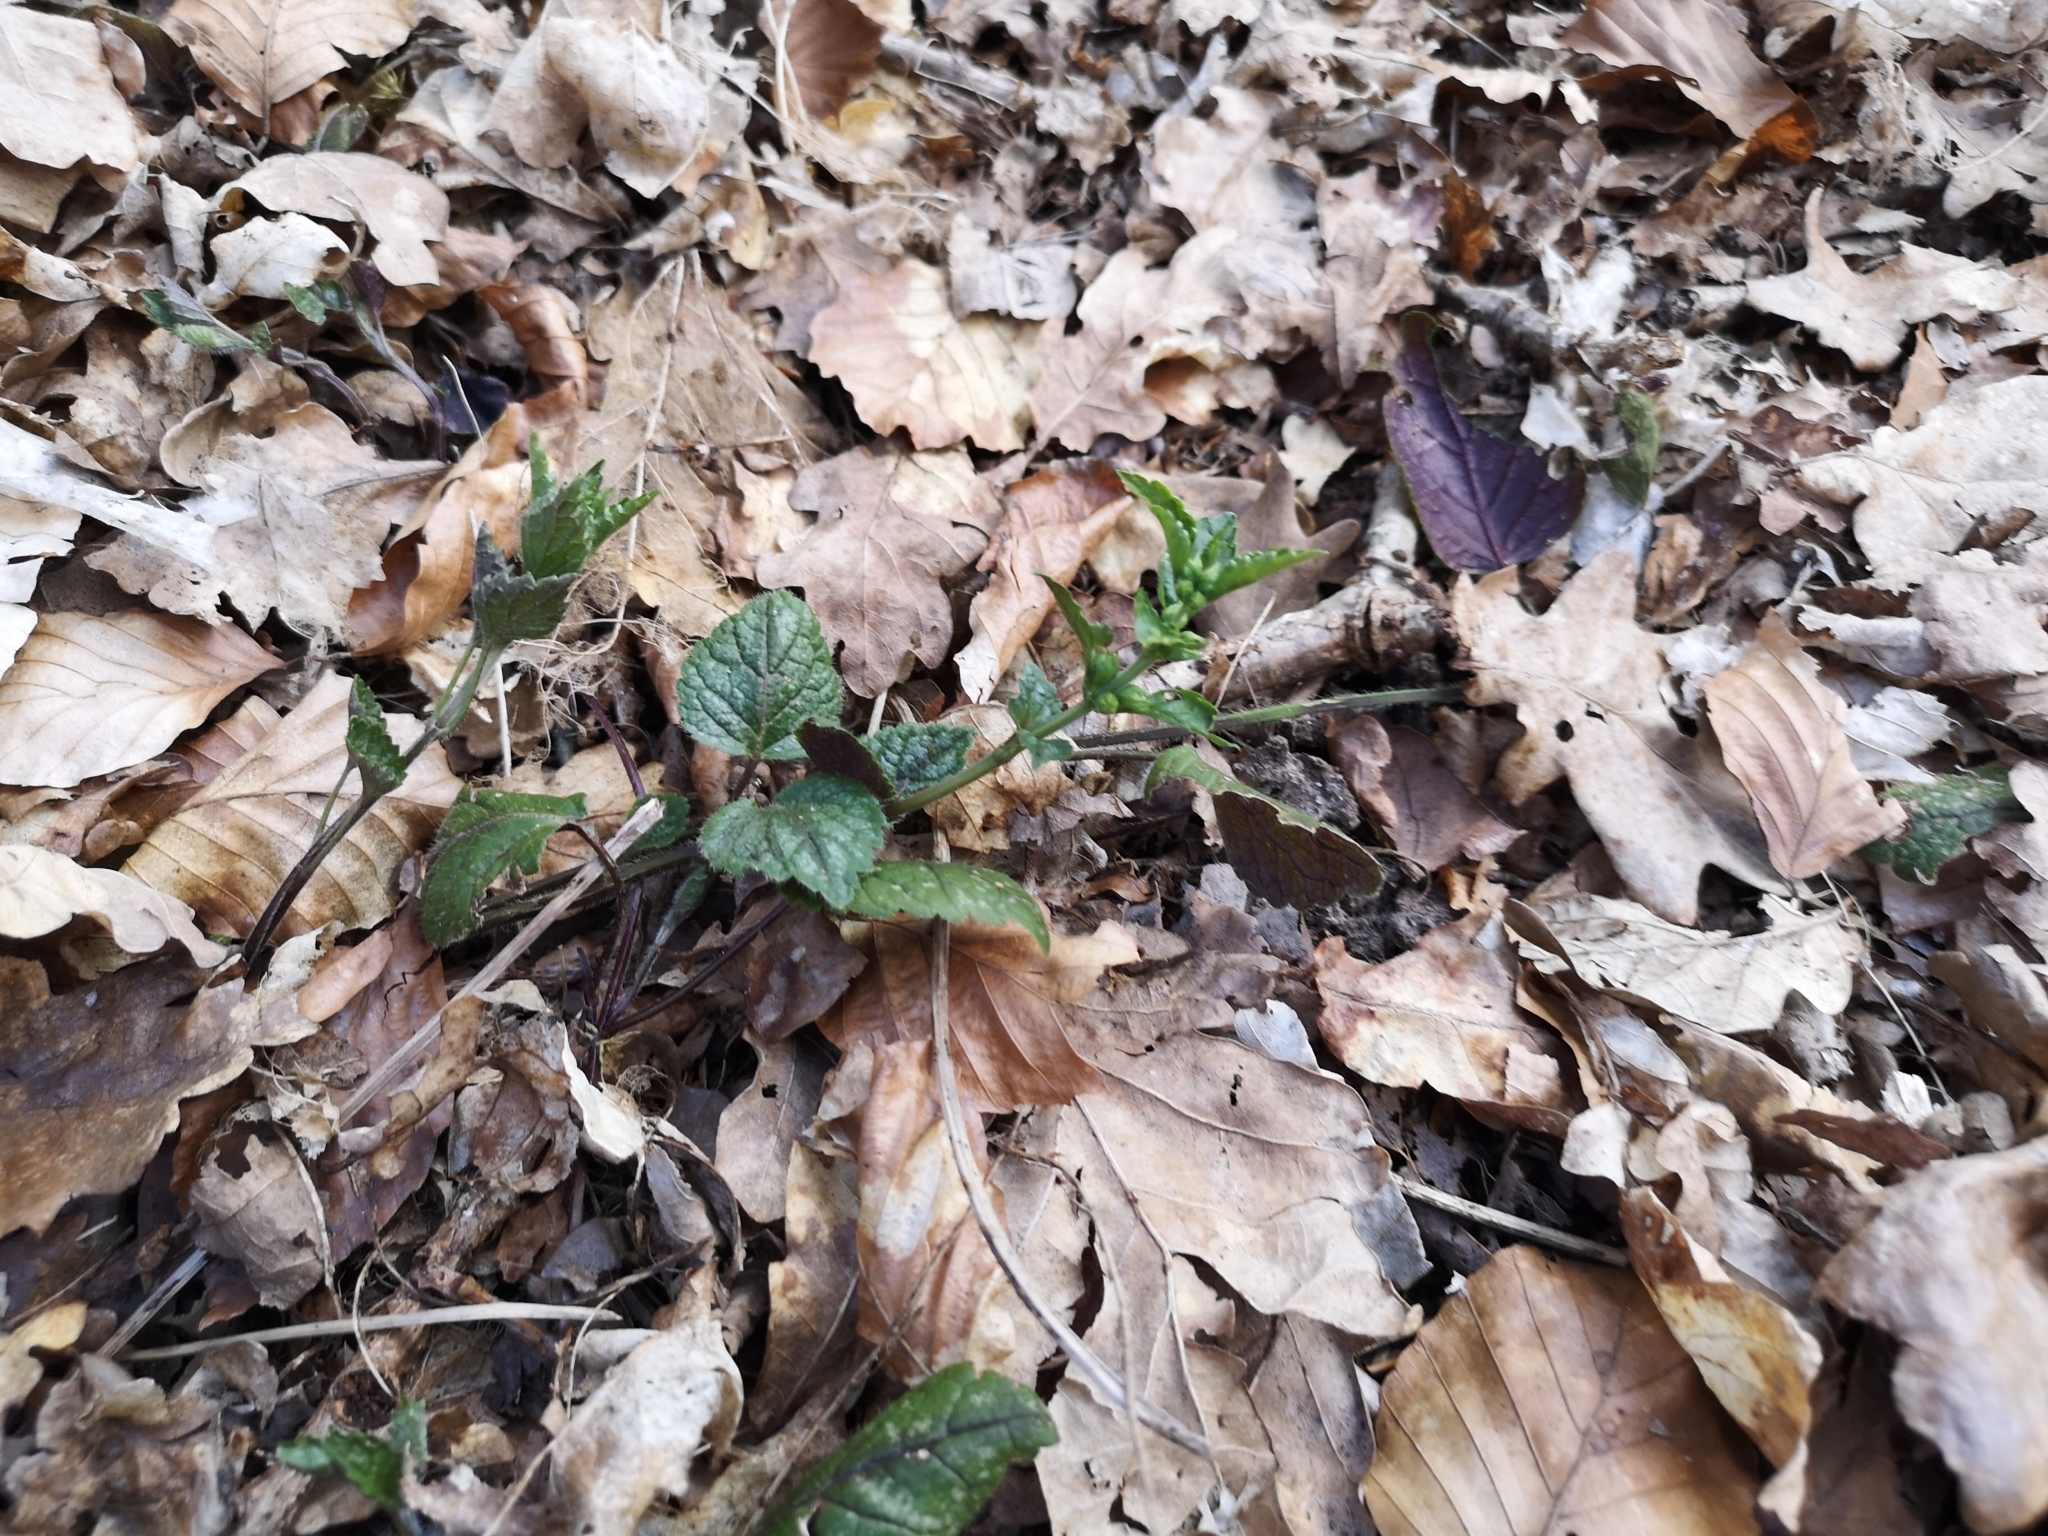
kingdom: Plantae
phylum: Tracheophyta
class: Magnoliopsida
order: Lamiales
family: Lamiaceae
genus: Lamium
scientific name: Lamium galeobdolon
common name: Yellow archangel
